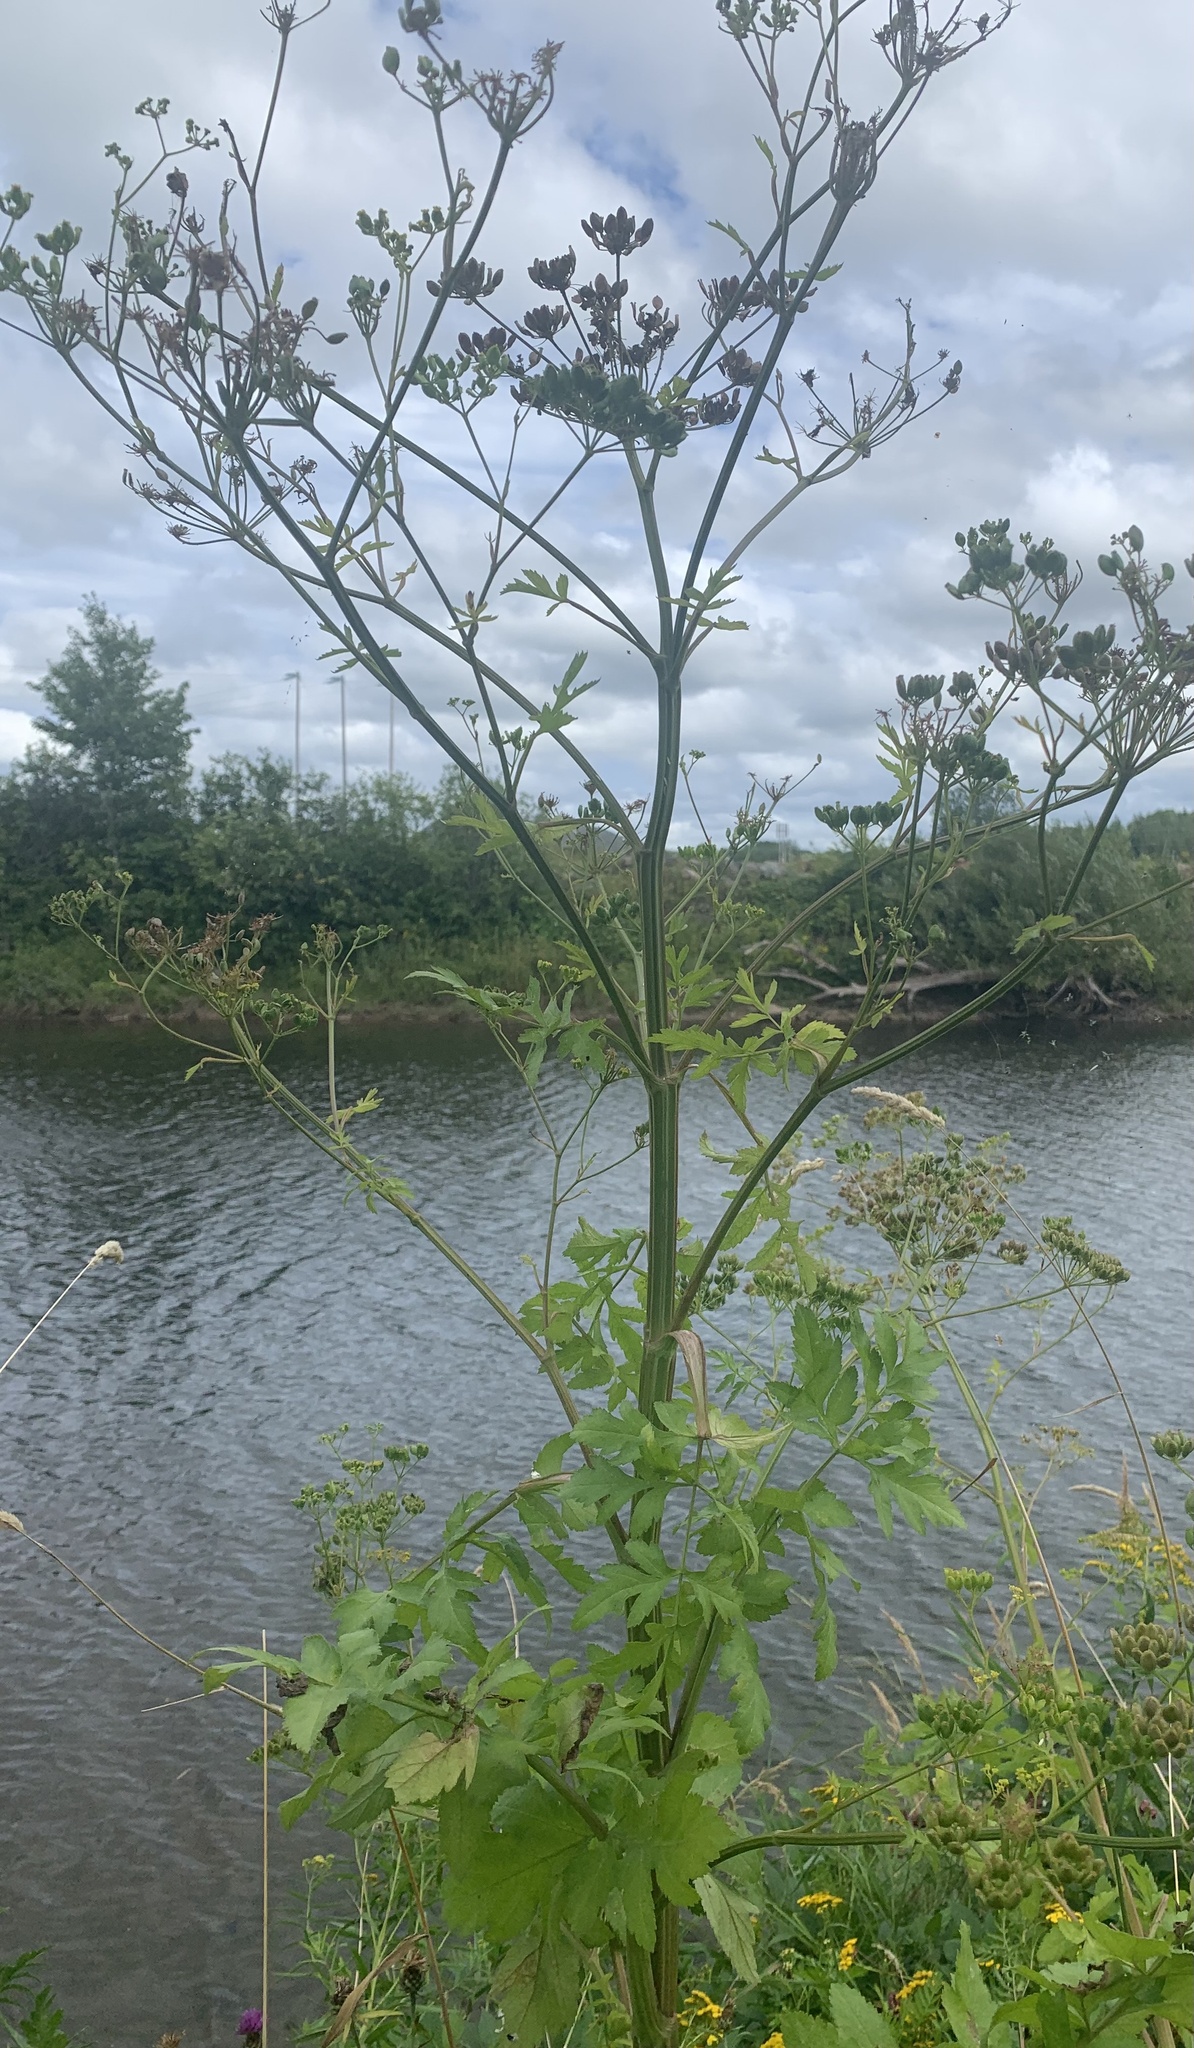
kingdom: Plantae
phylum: Tracheophyta
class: Magnoliopsida
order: Apiales
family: Apiaceae
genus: Pastinaca
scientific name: Pastinaca sativa
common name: Wild parsnip
